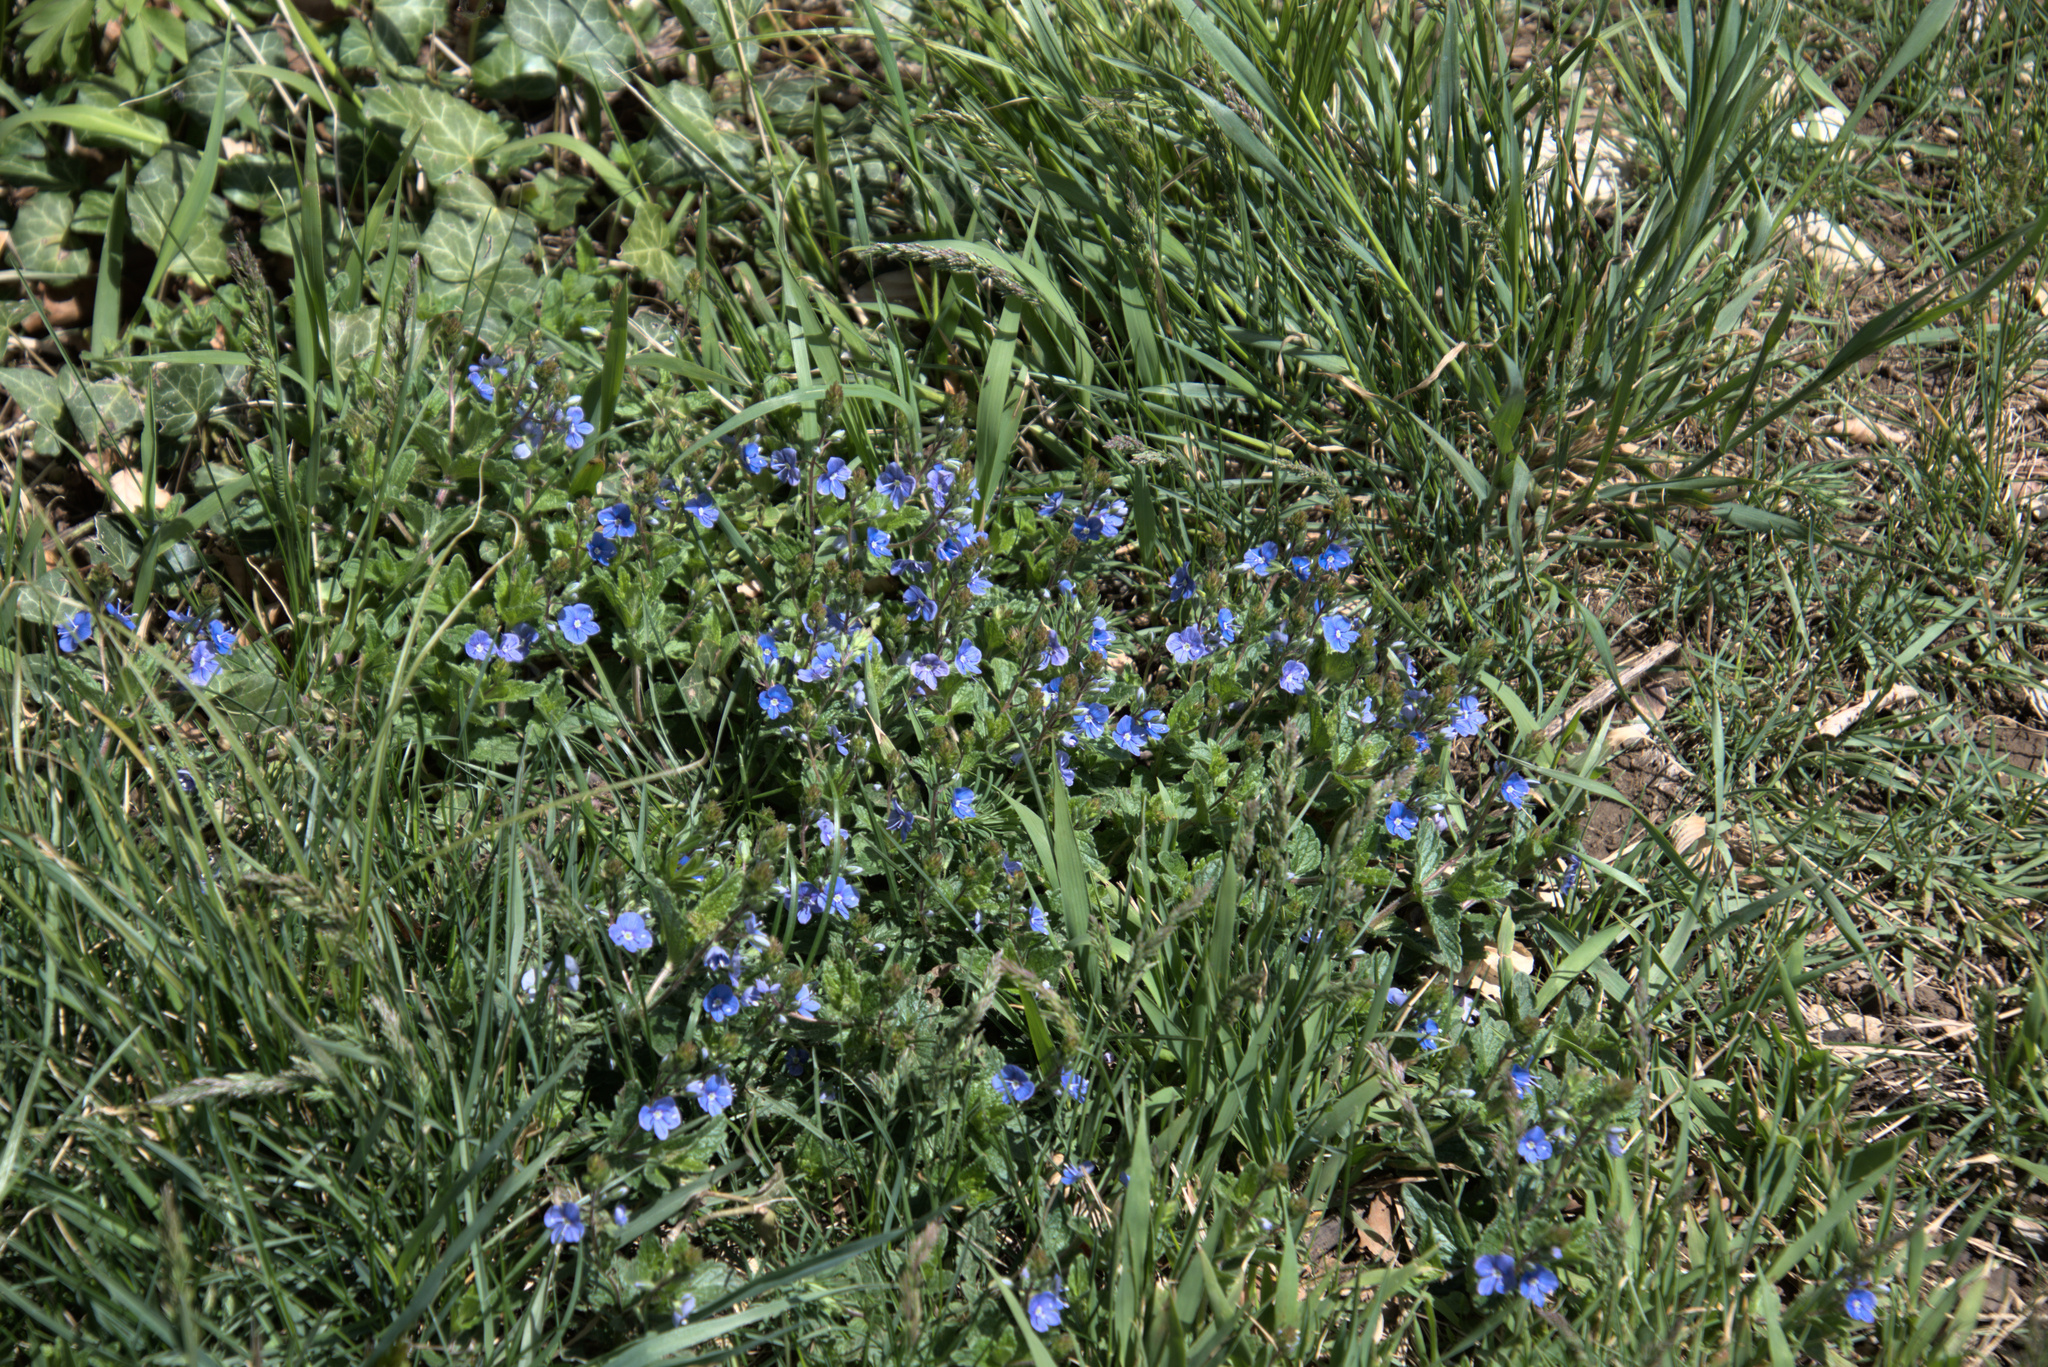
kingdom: Plantae
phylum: Tracheophyta
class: Magnoliopsida
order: Lamiales
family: Plantaginaceae
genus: Veronica
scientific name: Veronica chamaedrys
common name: Germander speedwell
